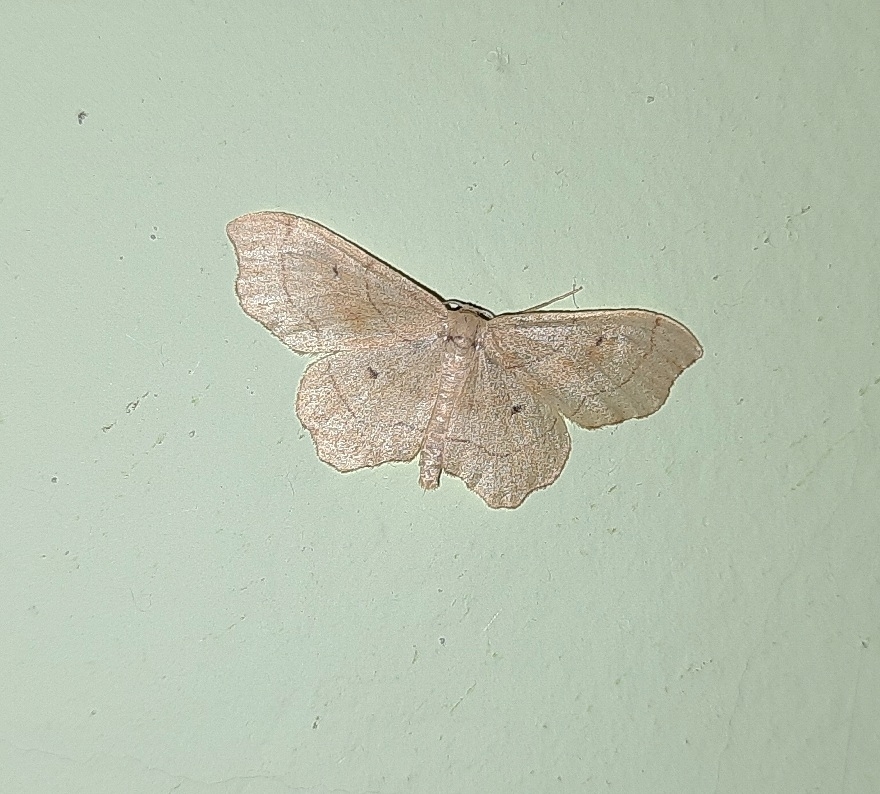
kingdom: Animalia
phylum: Arthropoda
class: Insecta
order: Lepidoptera
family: Geometridae
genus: Idaea
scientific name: Idaea emarginata
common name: Small scallop
